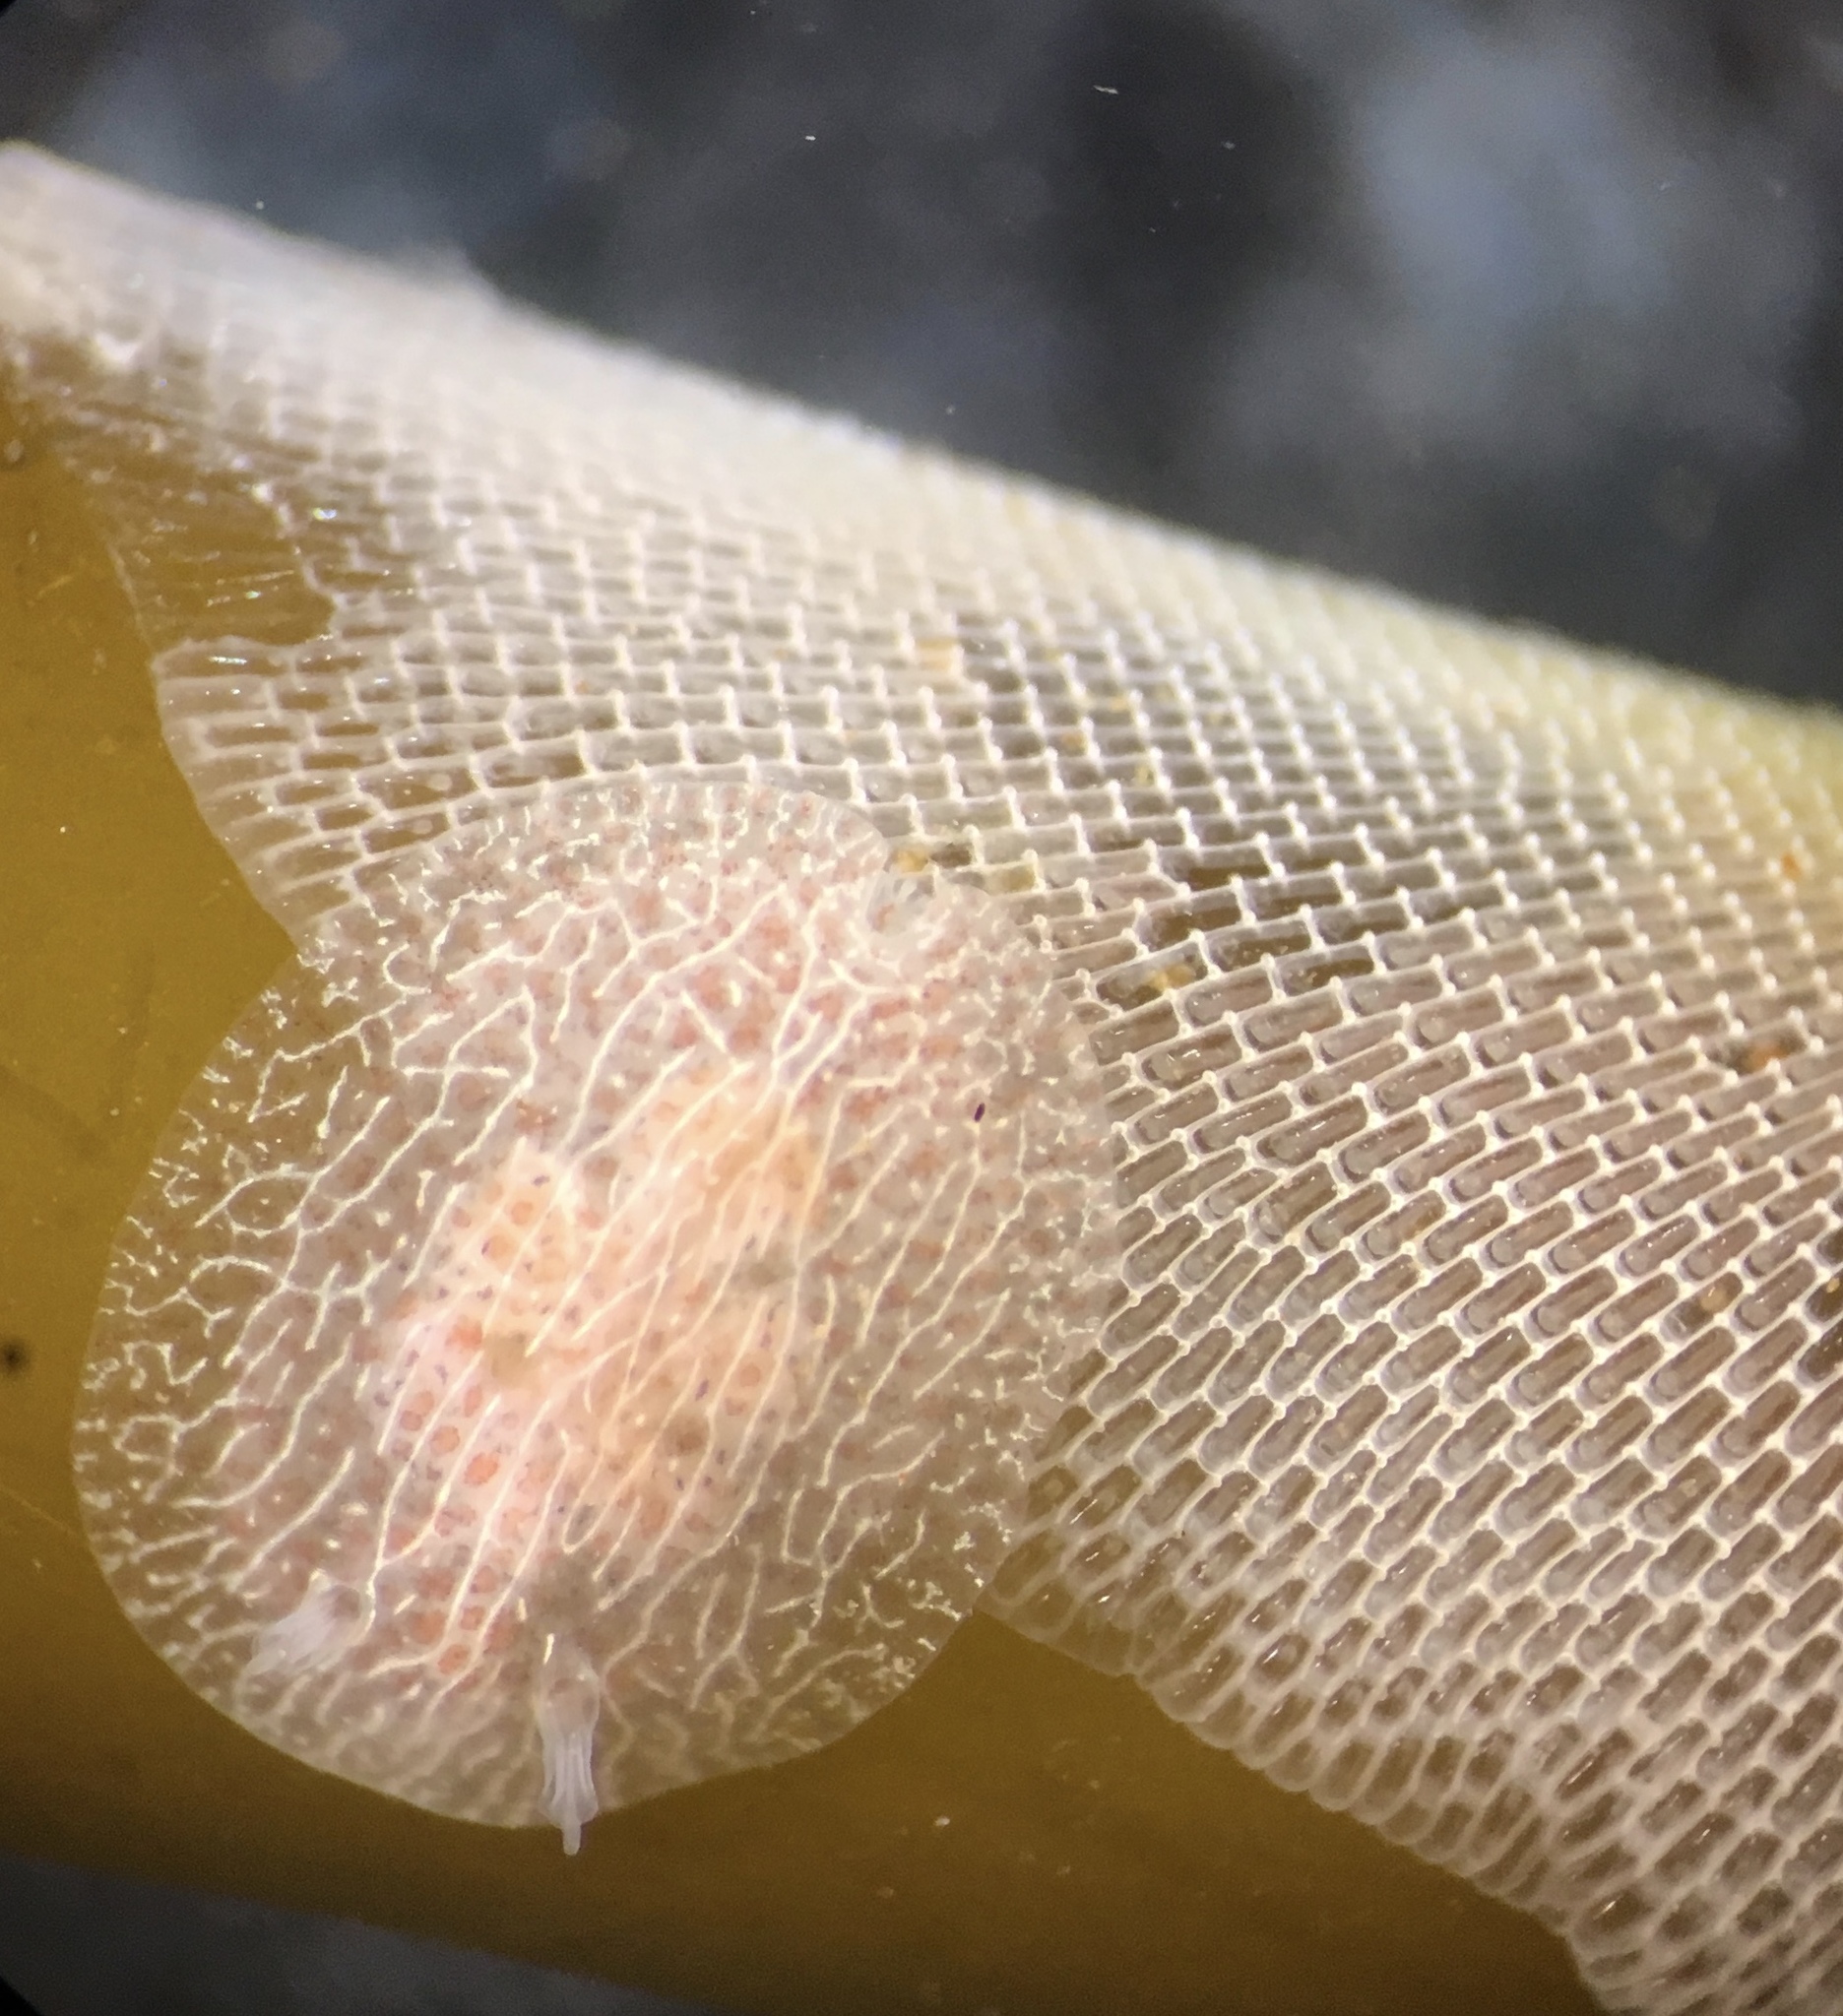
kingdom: Animalia
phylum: Mollusca
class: Gastropoda
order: Nudibranchia
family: Corambidae
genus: Corambe
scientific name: Corambe pacifica
